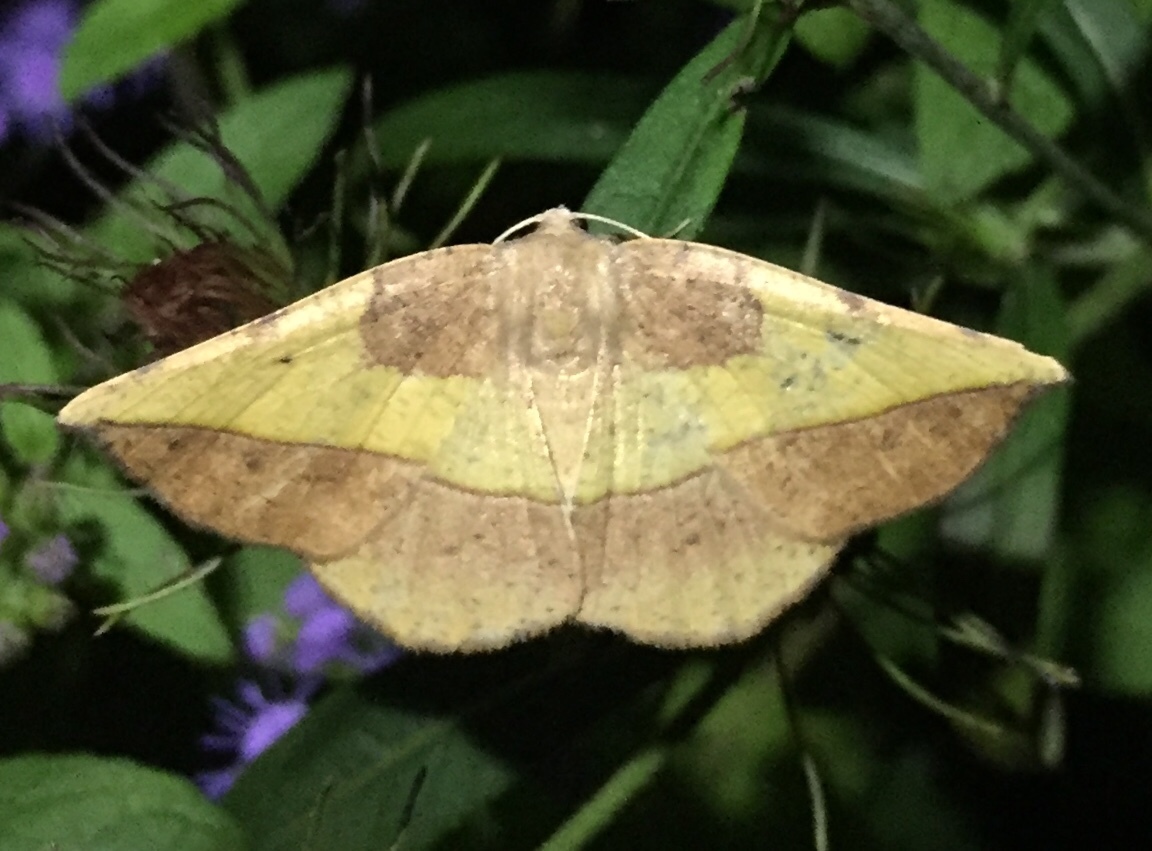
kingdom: Animalia
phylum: Arthropoda
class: Insecta
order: Lepidoptera
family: Geometridae
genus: Eusarca
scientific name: Eusarca fundaria
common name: Dark-edged eusarca moth
